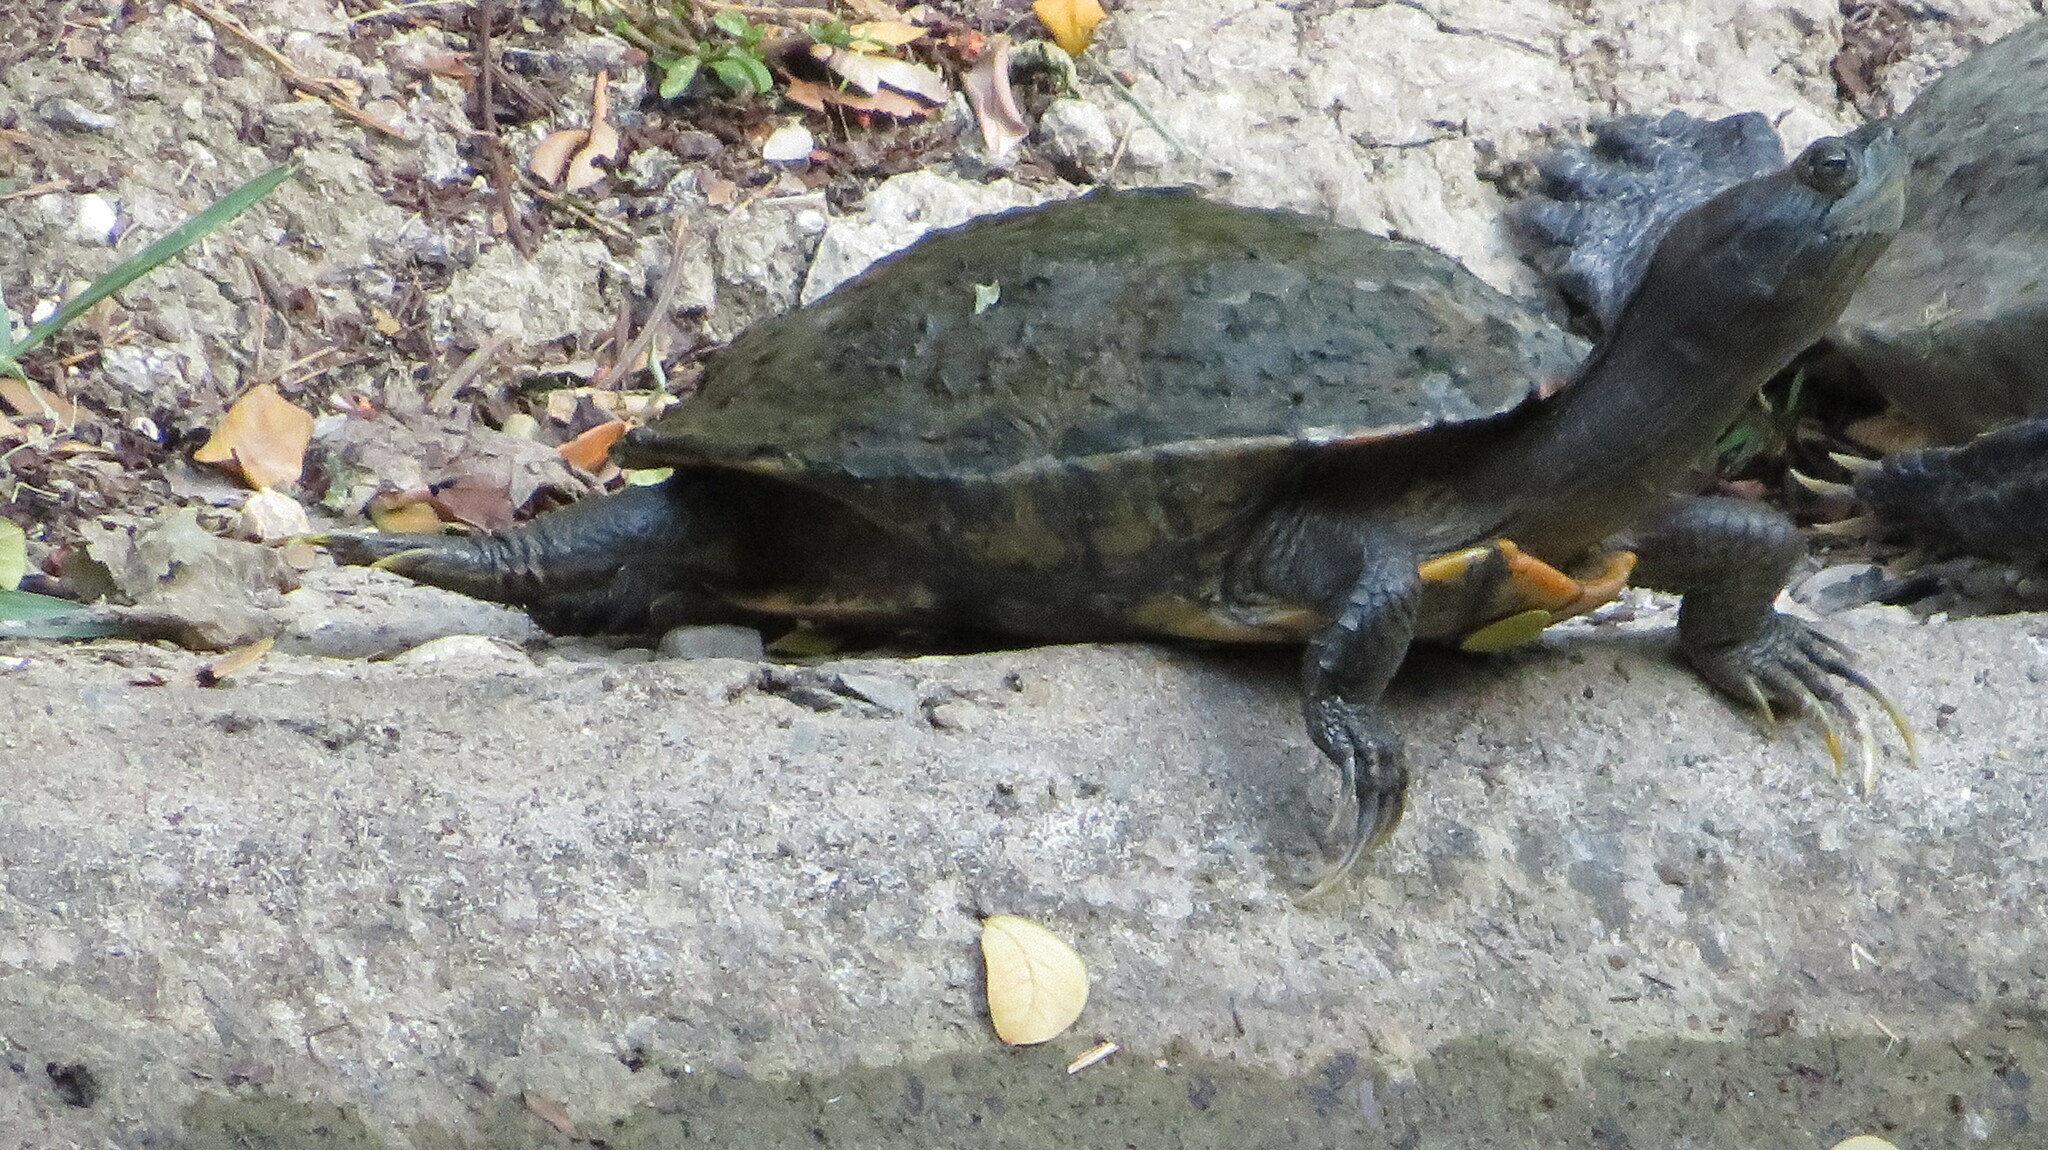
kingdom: Animalia
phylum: Chordata
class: Testudines
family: Emydidae
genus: Trachemys
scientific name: Trachemys scripta
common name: Slider
